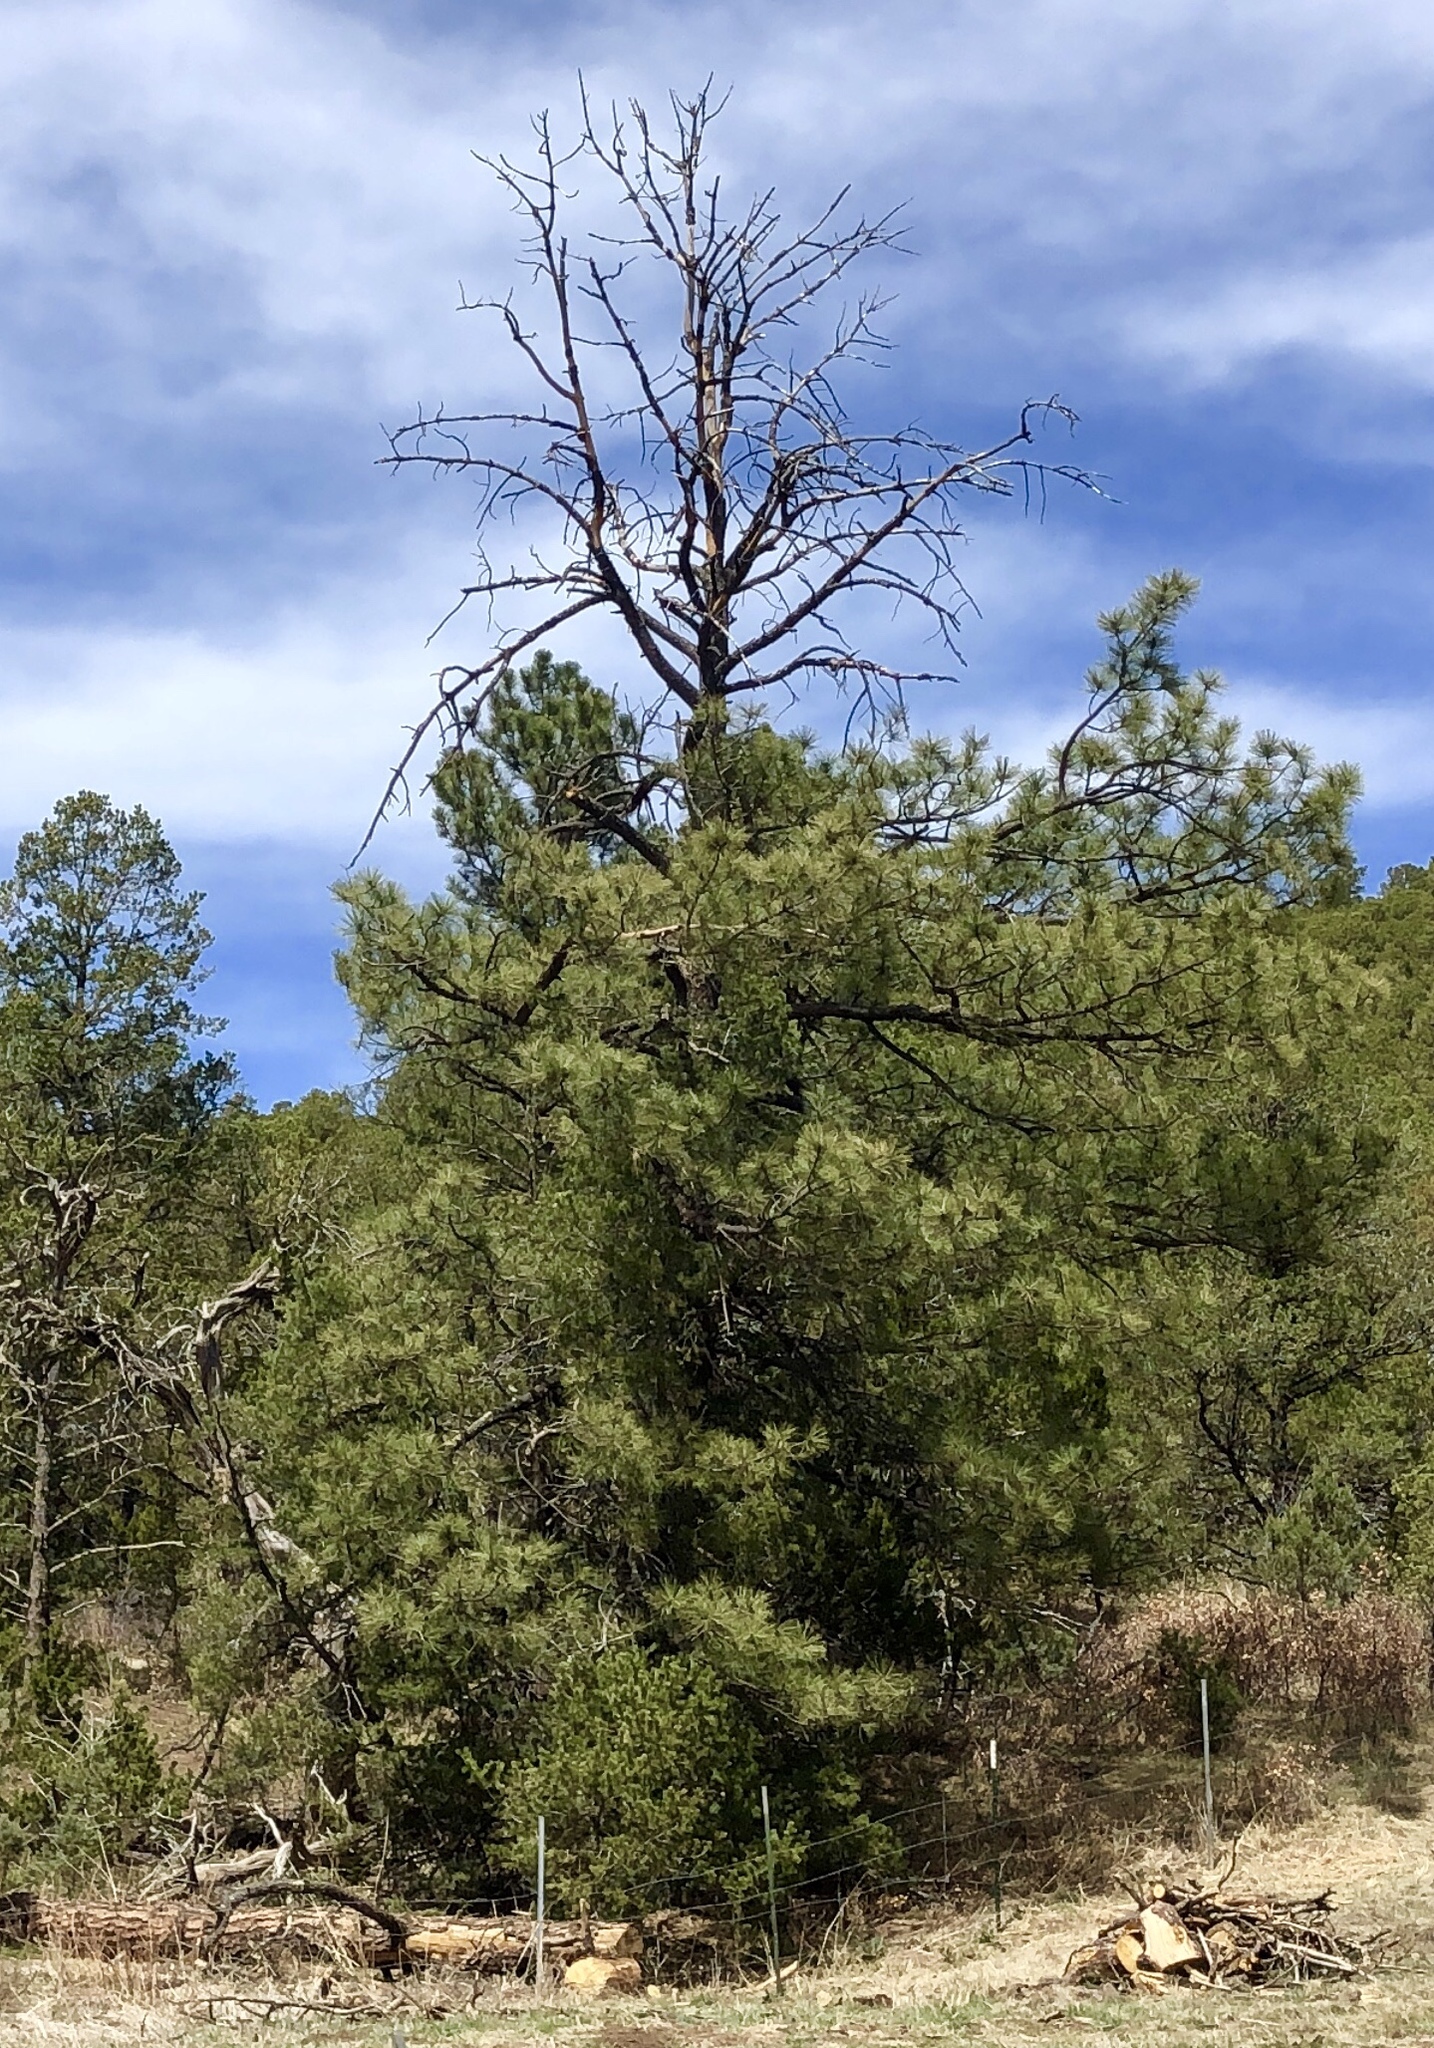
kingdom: Plantae
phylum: Tracheophyta
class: Pinopsida
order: Pinales
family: Pinaceae
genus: Pinus
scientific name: Pinus ponderosa
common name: Western yellow-pine
